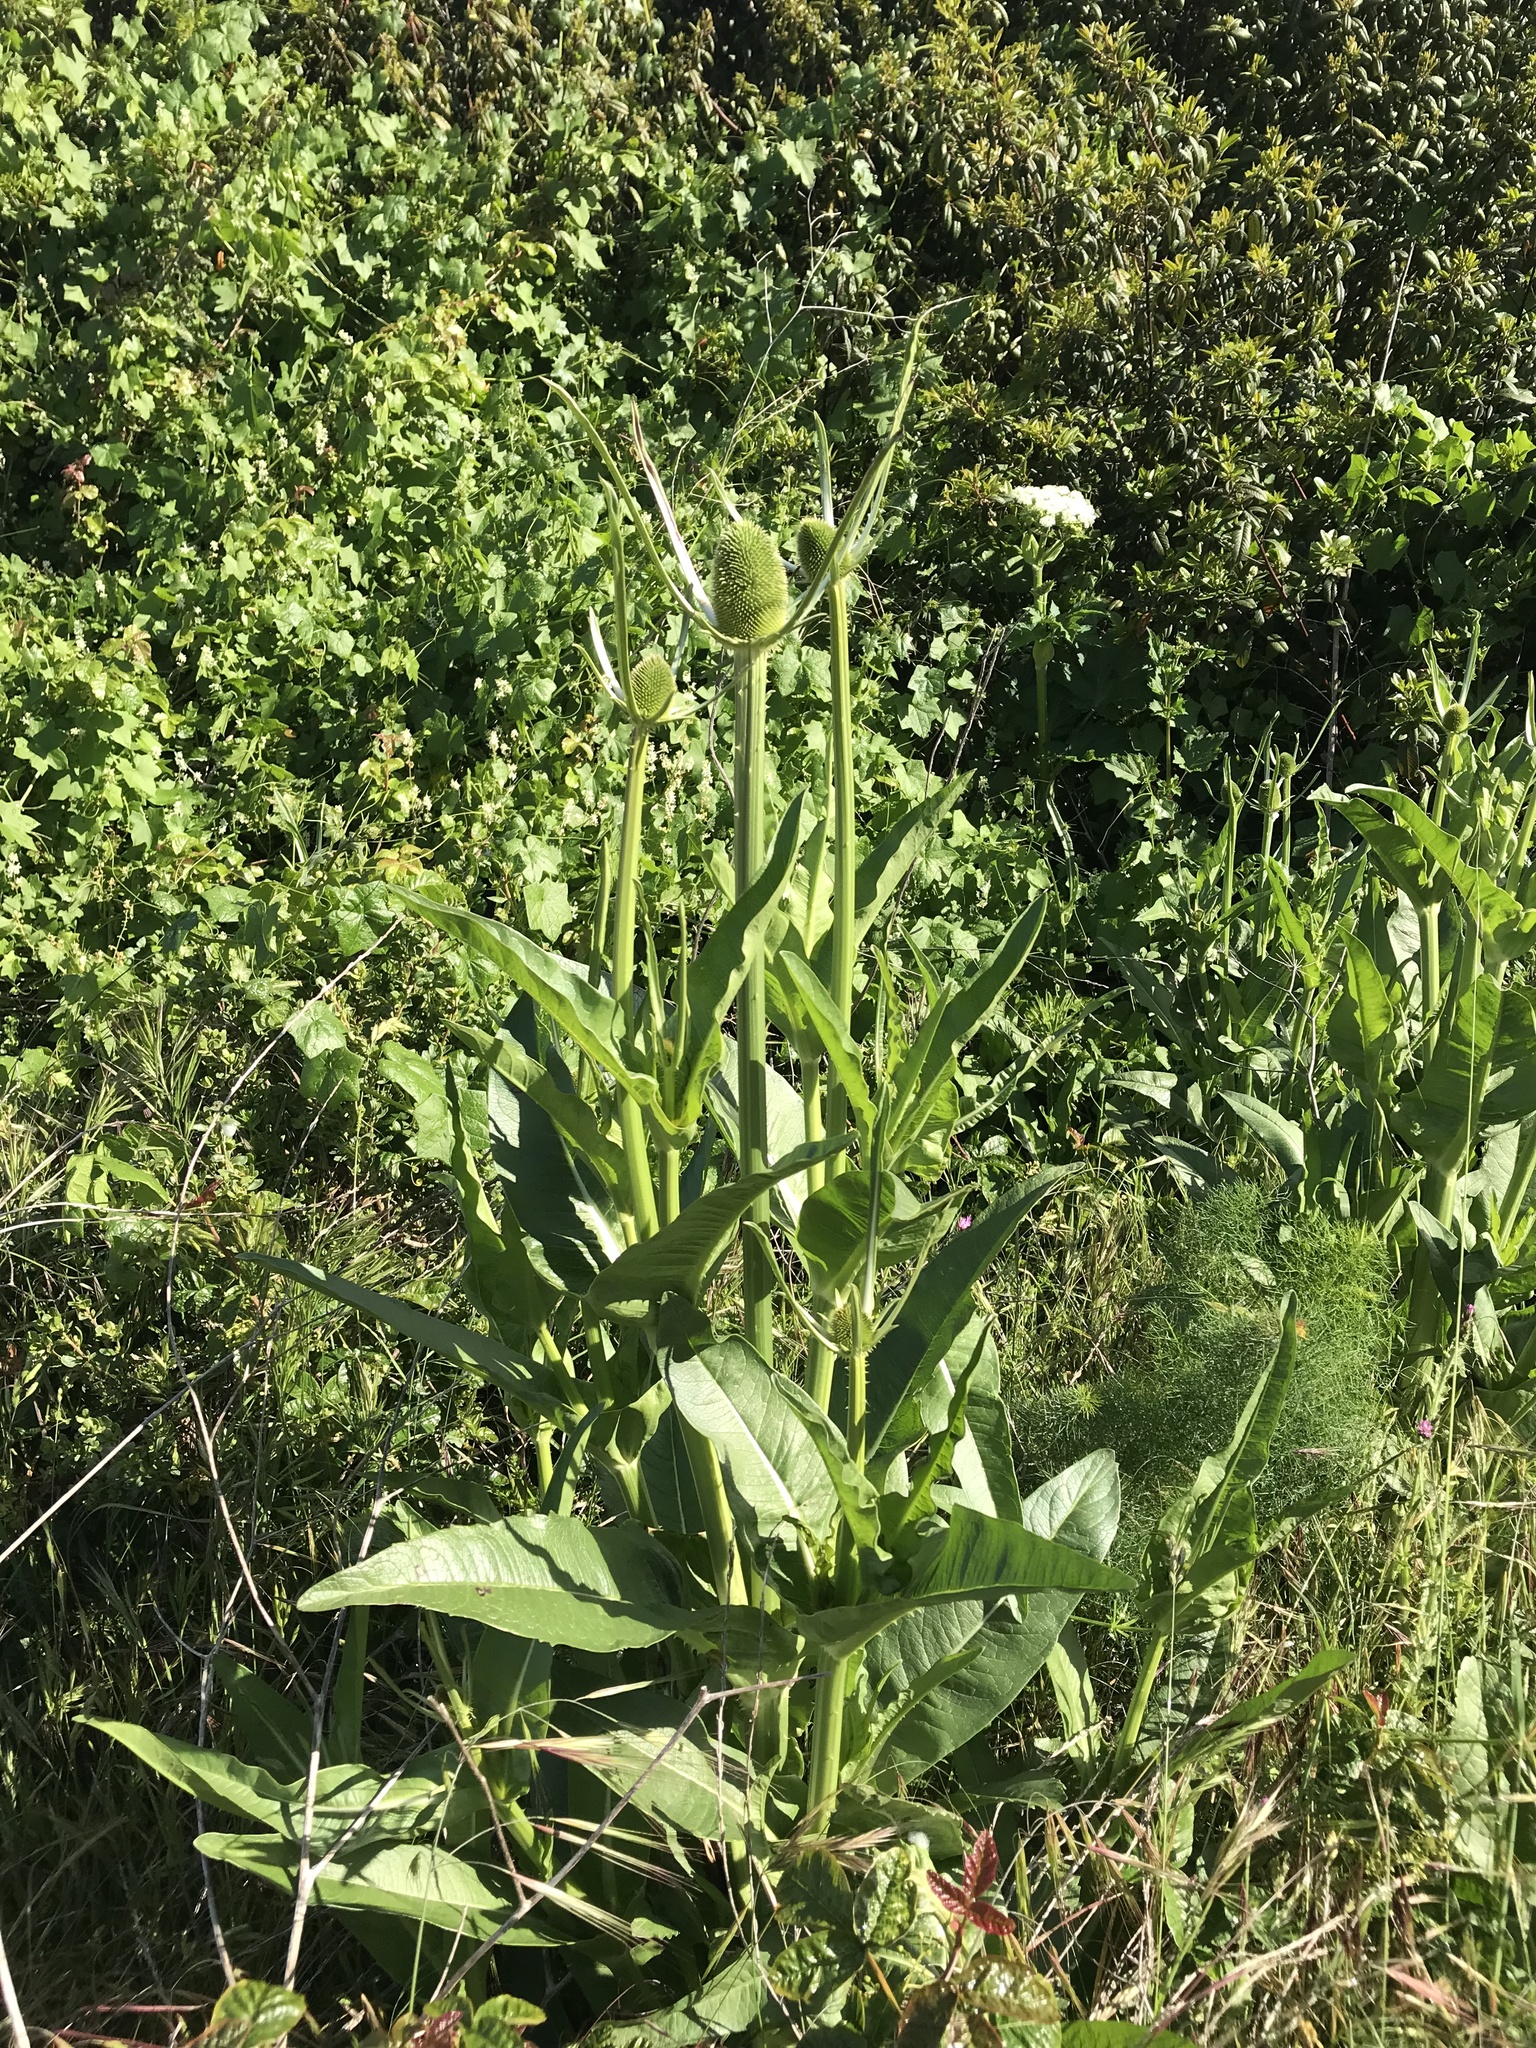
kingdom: Plantae
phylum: Tracheophyta
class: Magnoliopsida
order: Dipsacales
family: Caprifoliaceae
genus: Dipsacus
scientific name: Dipsacus sativus
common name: Fuller's teasel
